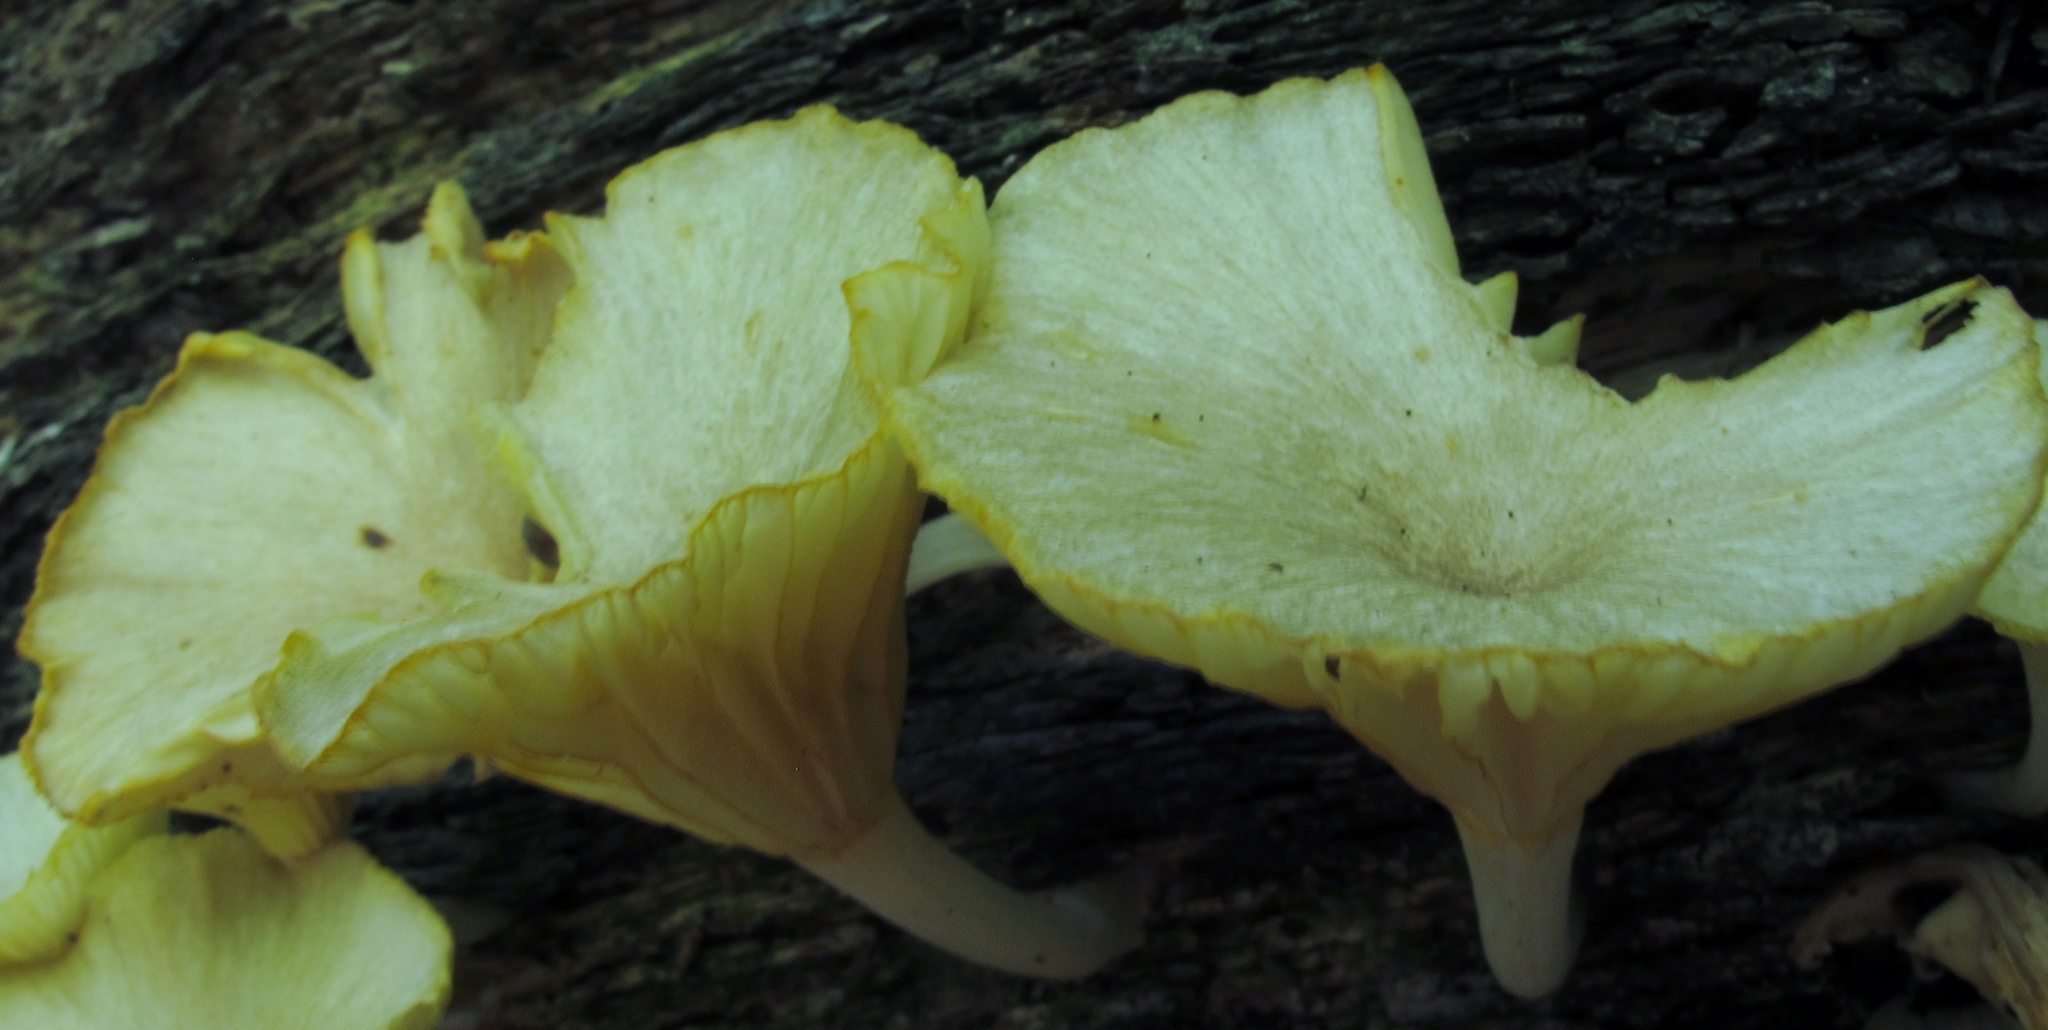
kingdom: Fungi
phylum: Basidiomycota
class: Agaricomycetes
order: Agaricales
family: Marasmiaceae
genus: Gerronema
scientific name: Gerronema strombodes
